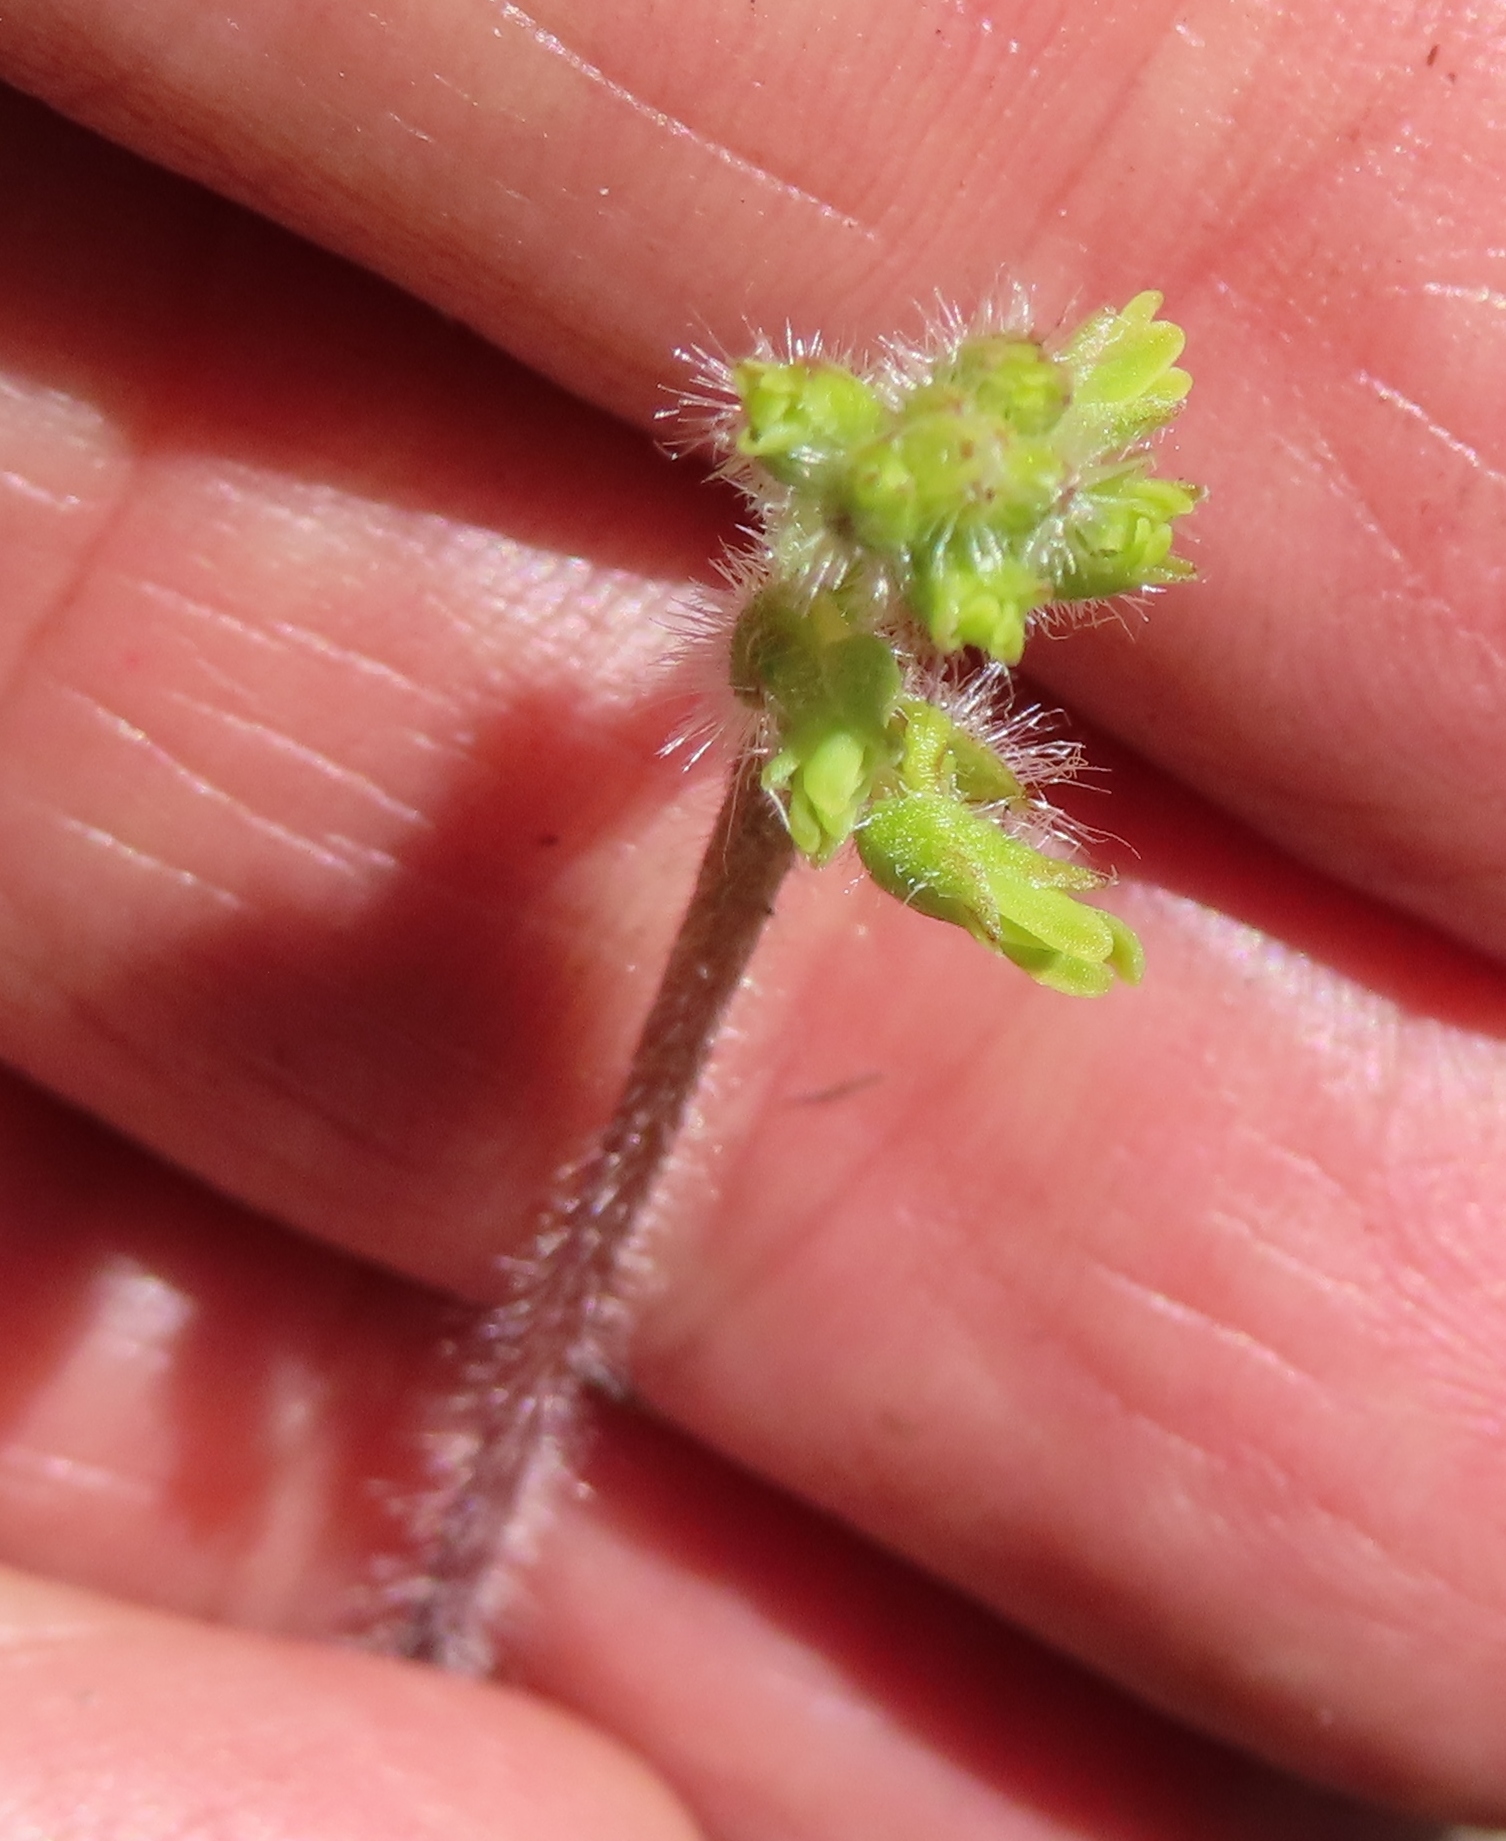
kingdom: Plantae
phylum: Tracheophyta
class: Liliopsida
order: Asparagales
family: Orchidaceae
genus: Holothrix
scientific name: Holothrix villosa
